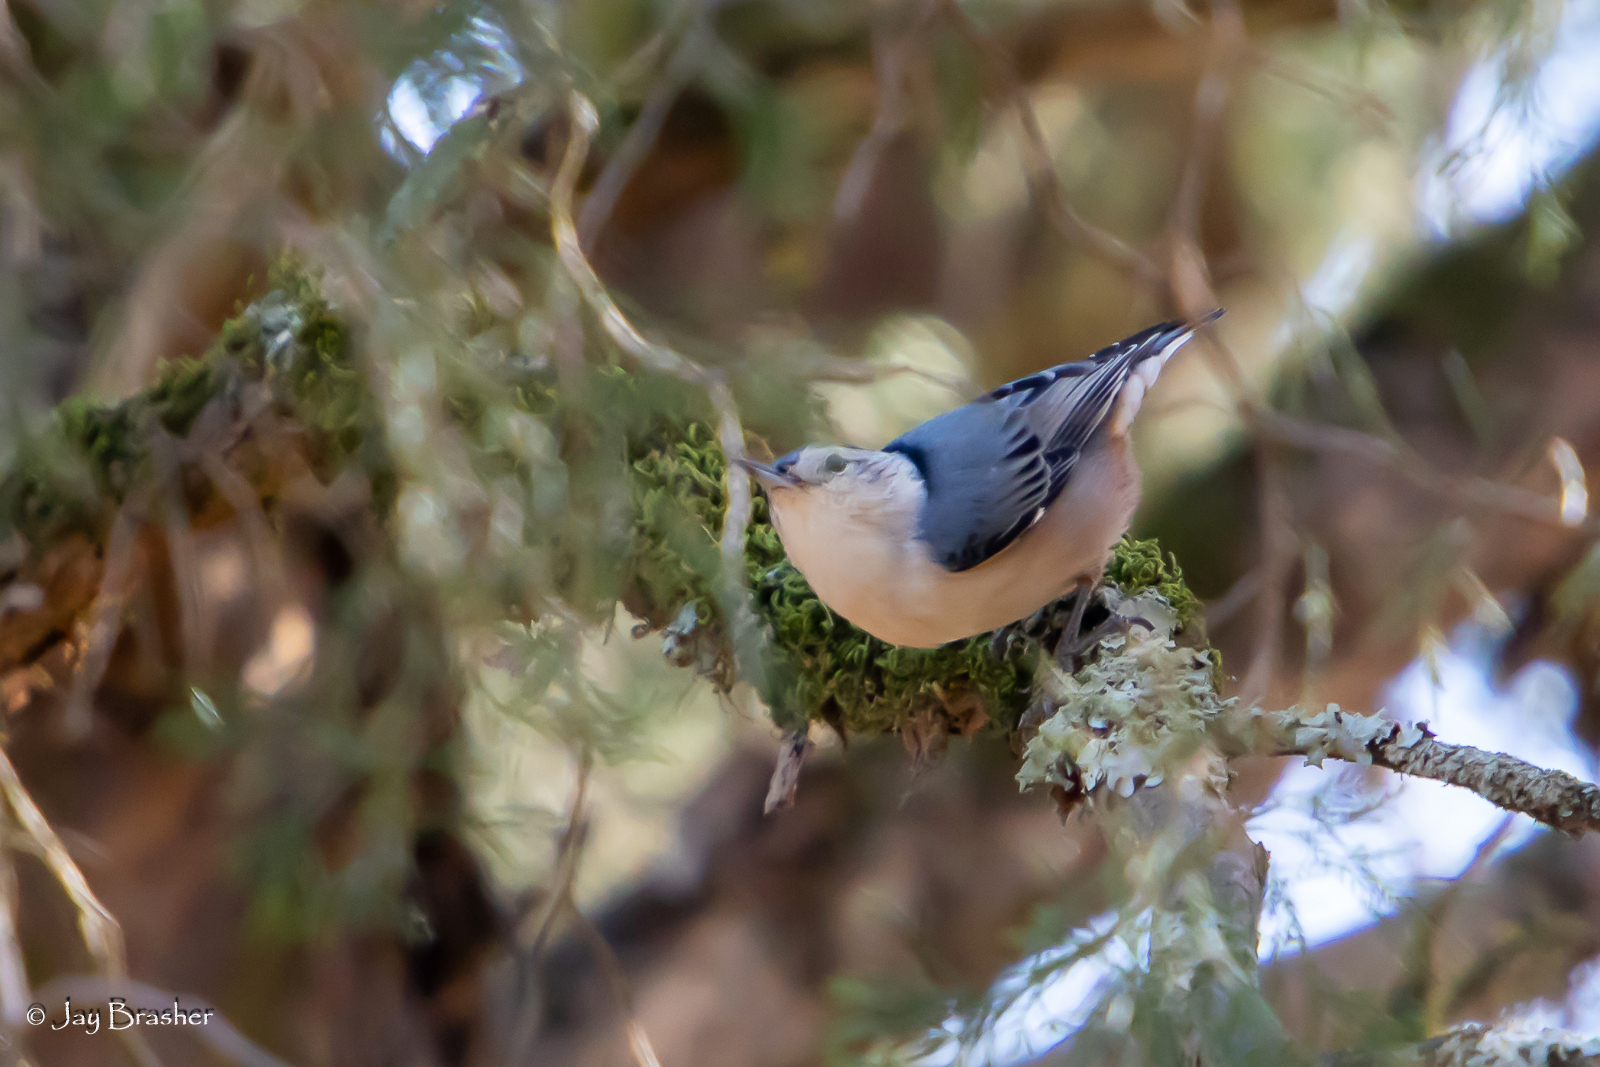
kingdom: Animalia
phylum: Chordata
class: Aves
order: Passeriformes
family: Sittidae
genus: Sitta
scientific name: Sitta carolinensis
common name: White-breasted nuthatch
